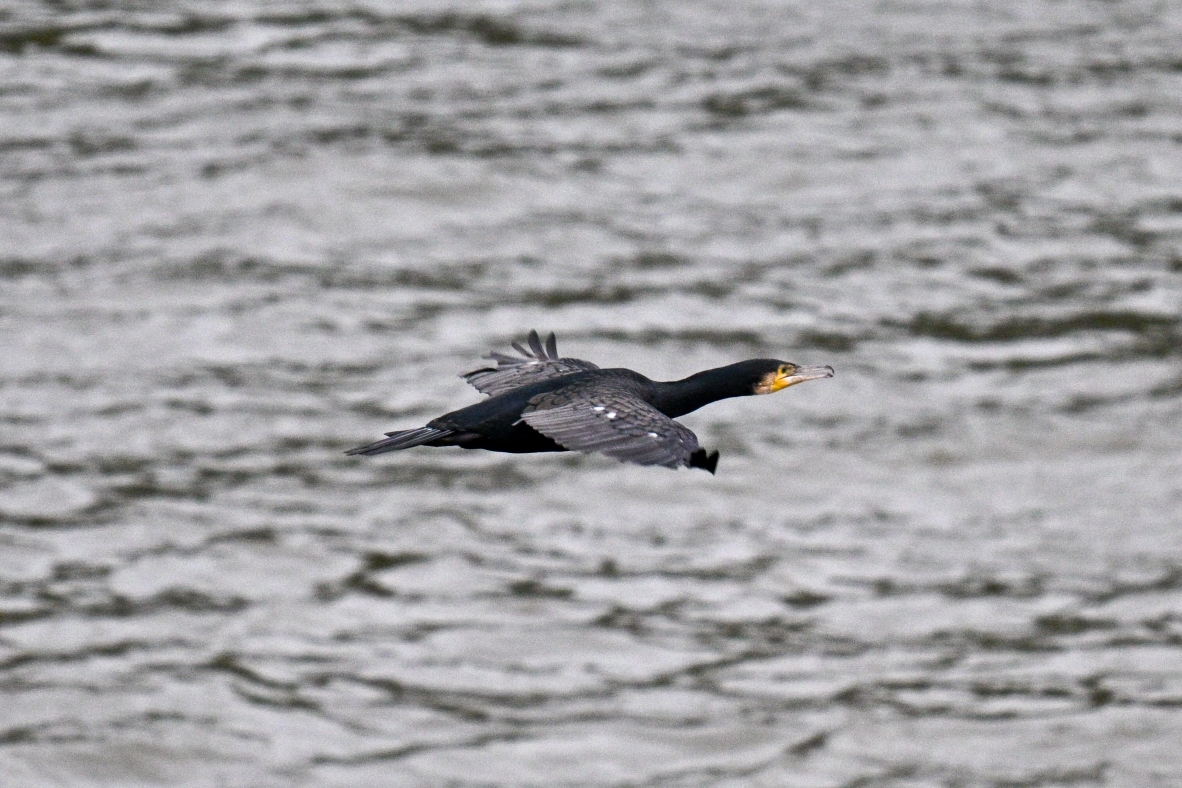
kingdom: Animalia
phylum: Chordata
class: Aves
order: Suliformes
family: Phalacrocoracidae
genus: Phalacrocorax
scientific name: Phalacrocorax carbo
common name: Great cormorant
